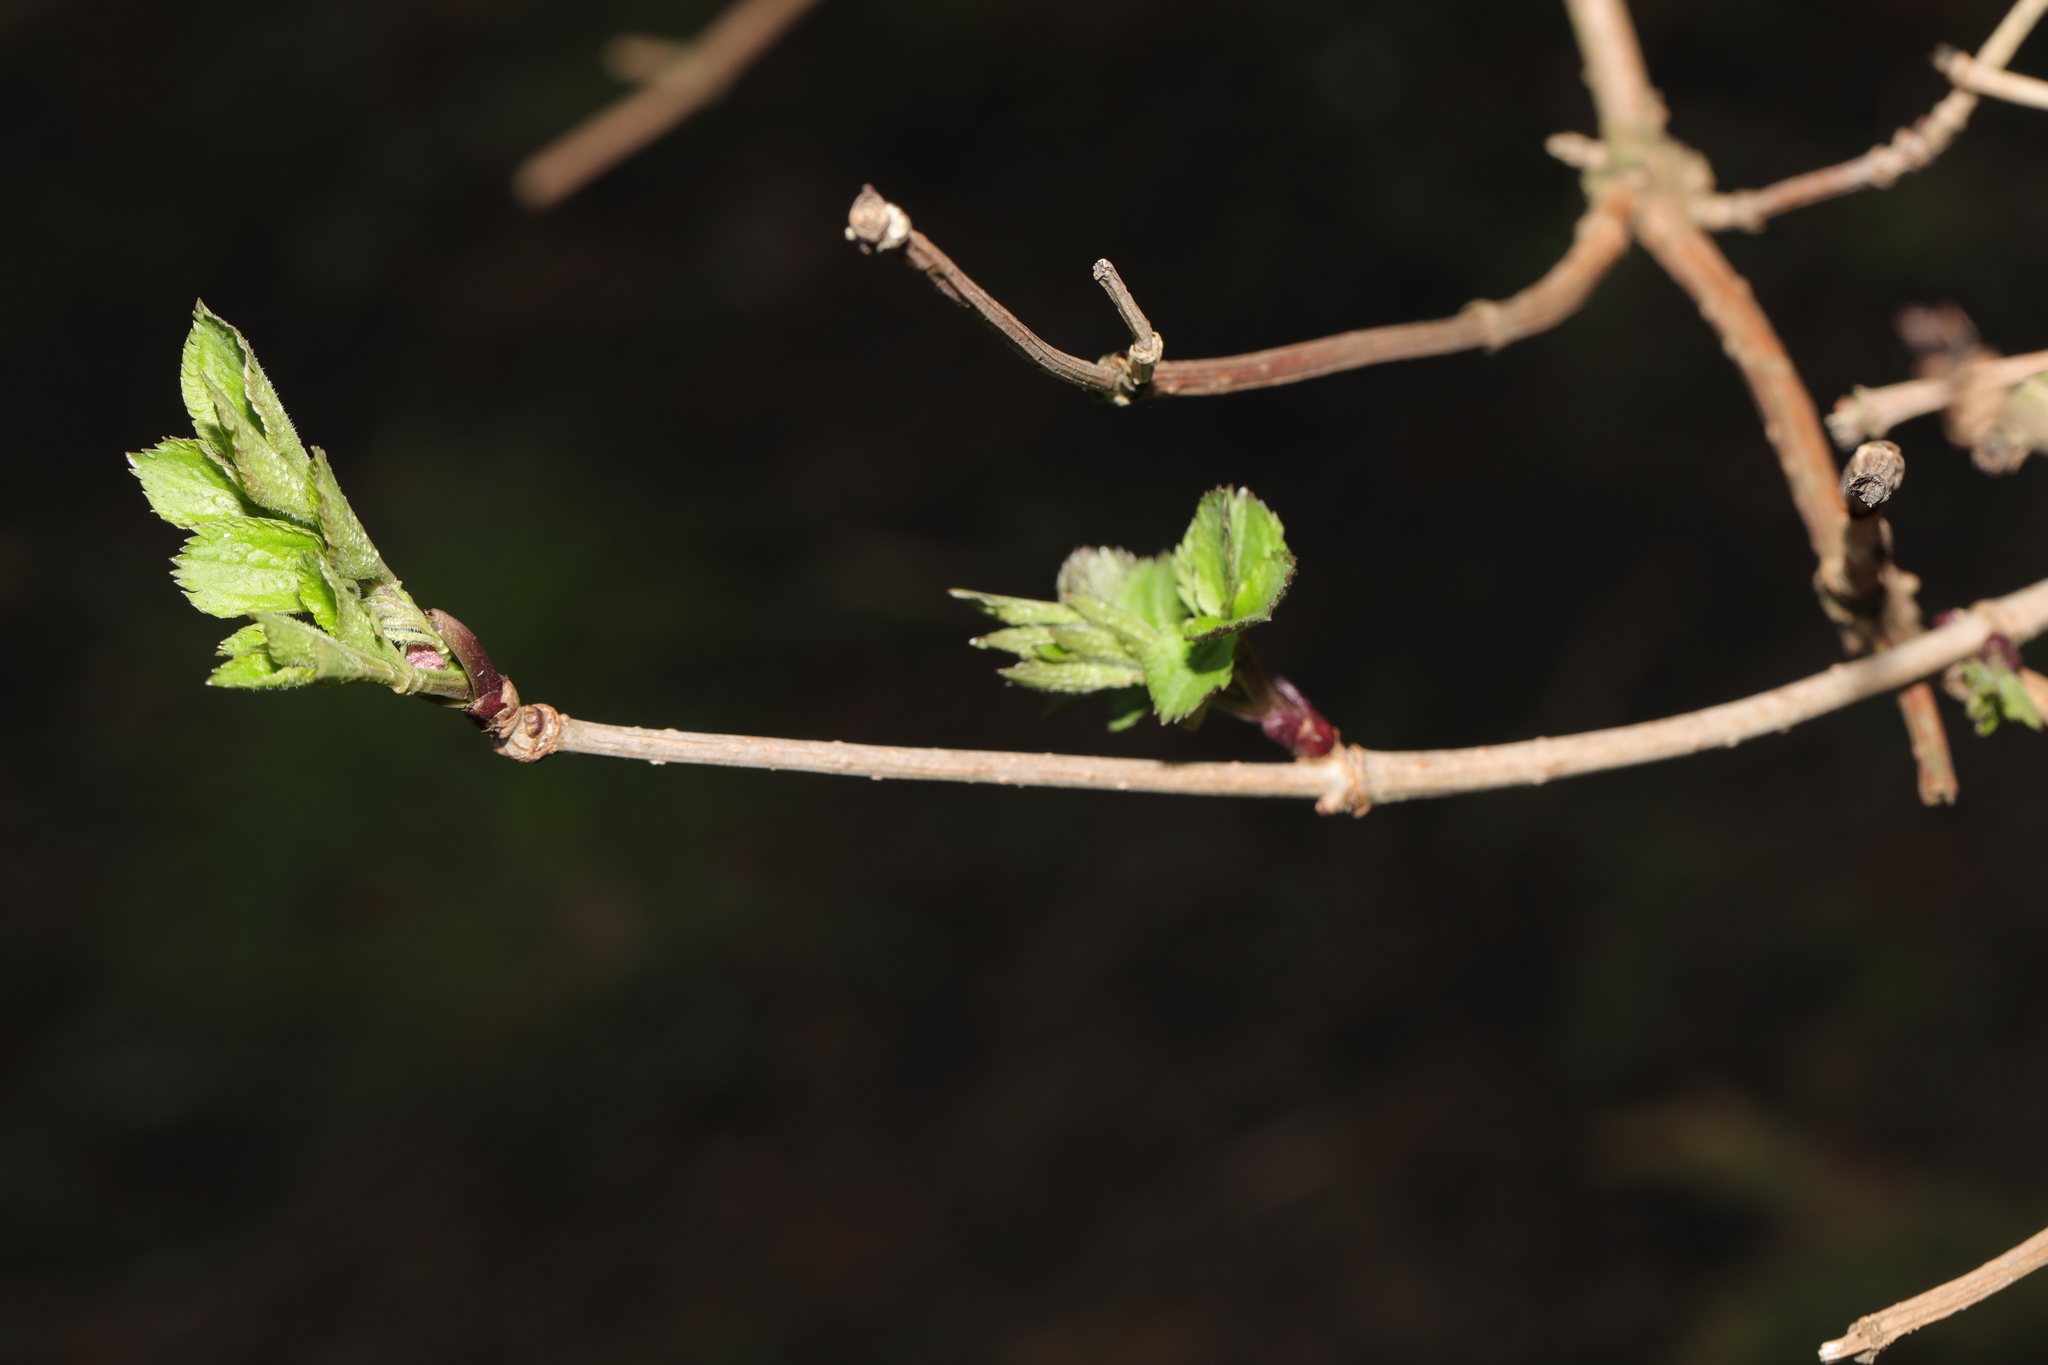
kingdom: Plantae
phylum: Tracheophyta
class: Magnoliopsida
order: Dipsacales
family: Viburnaceae
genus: Sambucus
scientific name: Sambucus nigra
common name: Elder
